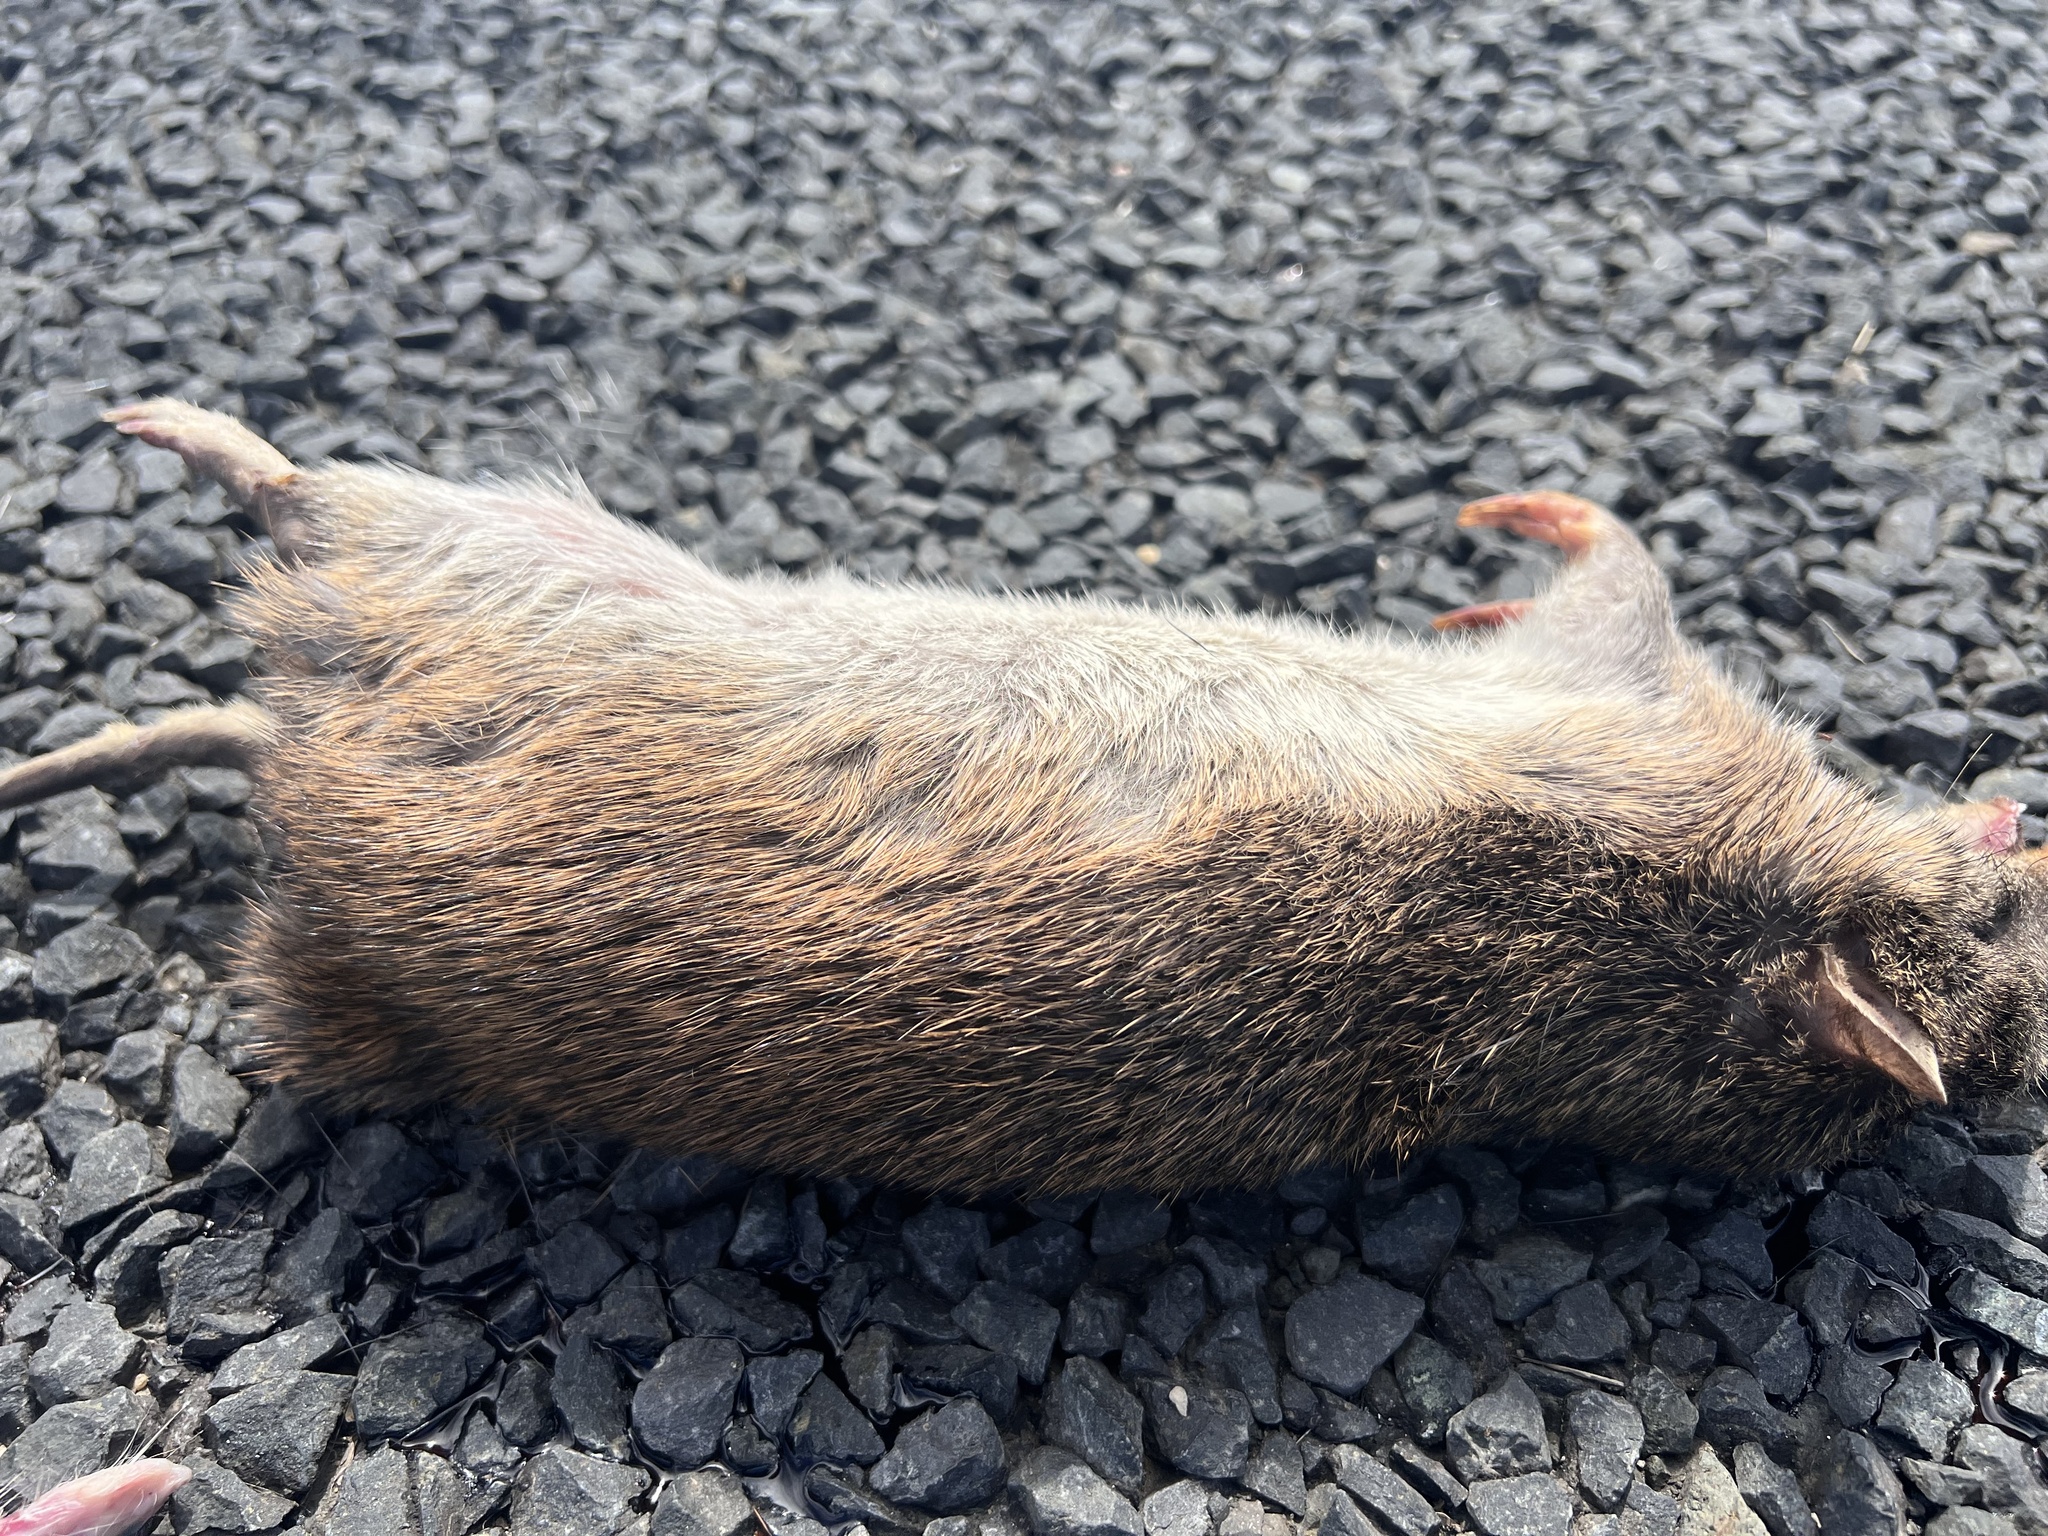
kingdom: Animalia
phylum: Chordata
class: Mammalia
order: Peramelemorphia
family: Peramelidae
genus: Isoodon
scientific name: Isoodon macrourus
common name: Northern brown bandicoot
